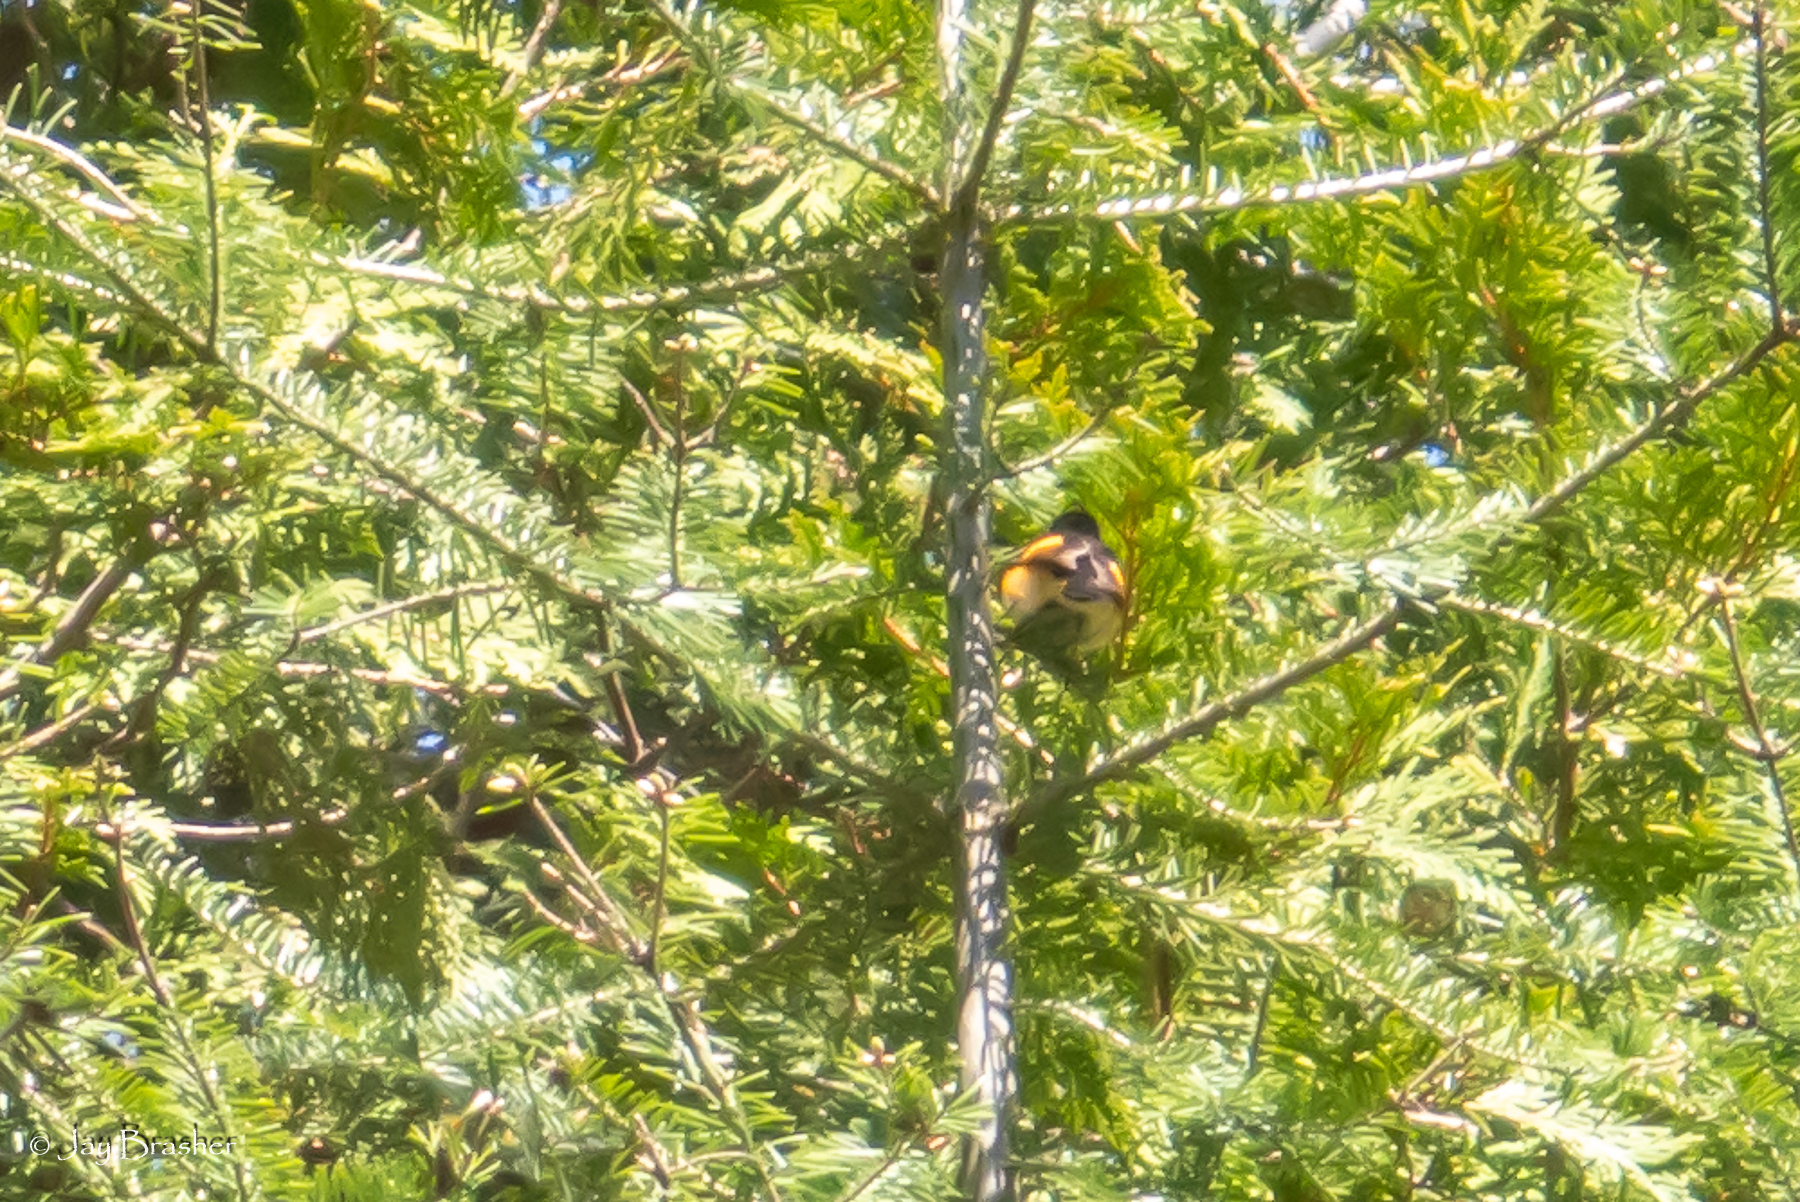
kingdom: Animalia
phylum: Chordata
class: Aves
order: Passeriformes
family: Parulidae
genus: Setophaga
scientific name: Setophaga ruticilla
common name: American redstart
